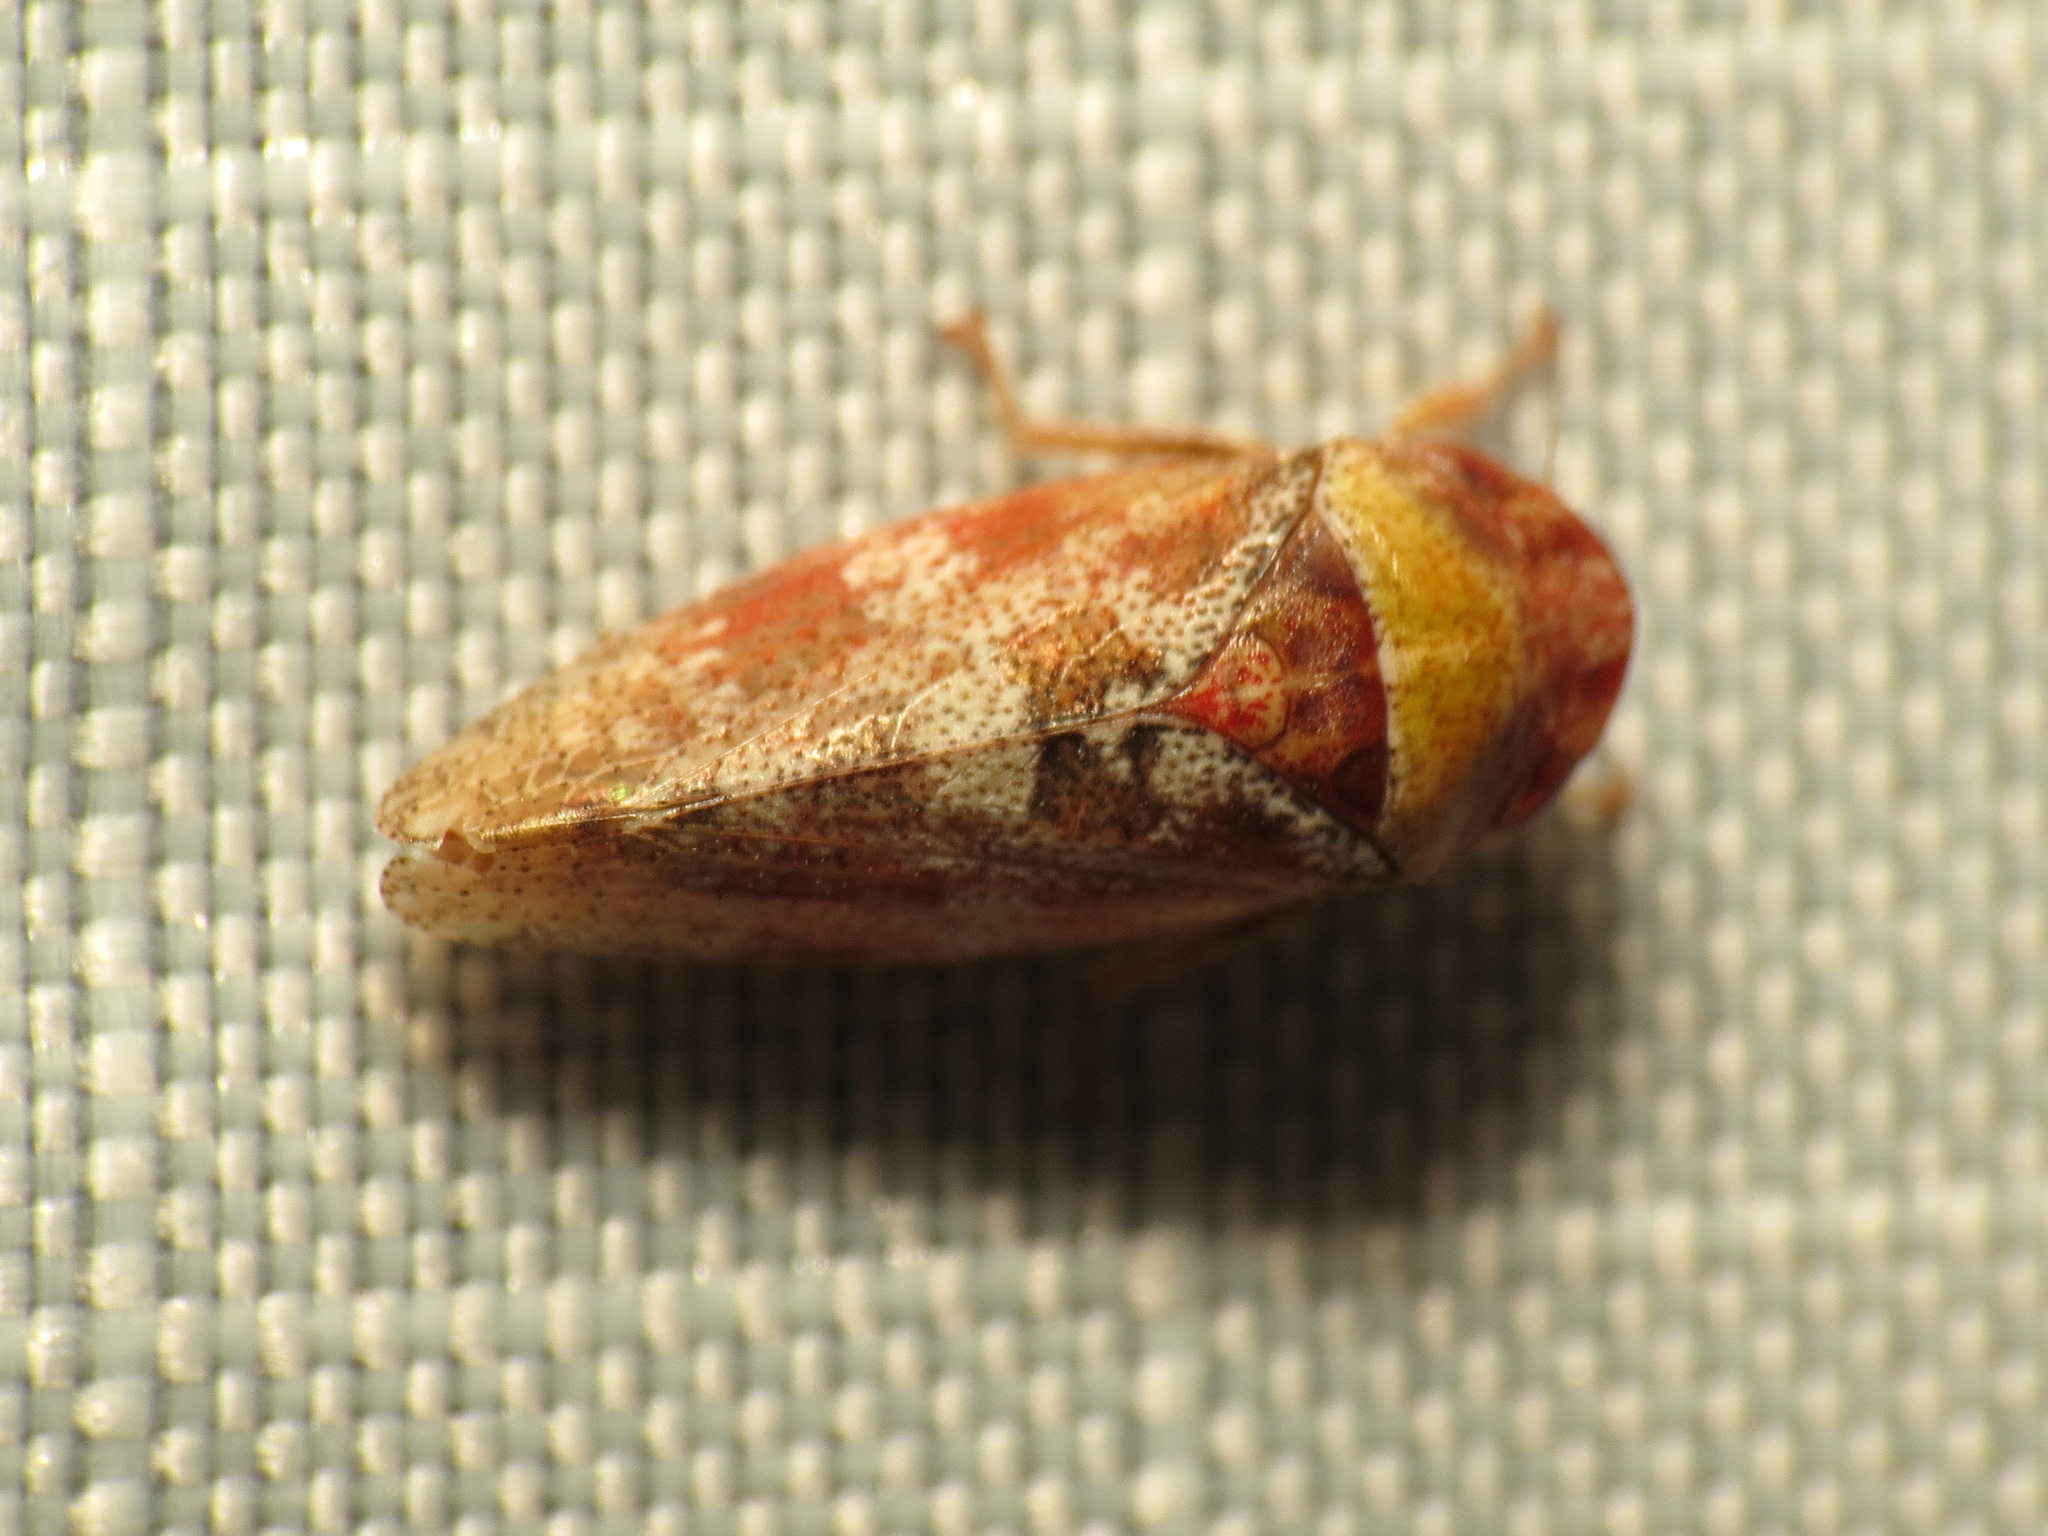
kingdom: Animalia
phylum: Arthropoda
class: Insecta
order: Hemiptera
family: Cicadellidae
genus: Dragonana
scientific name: Dragonana dracontea
